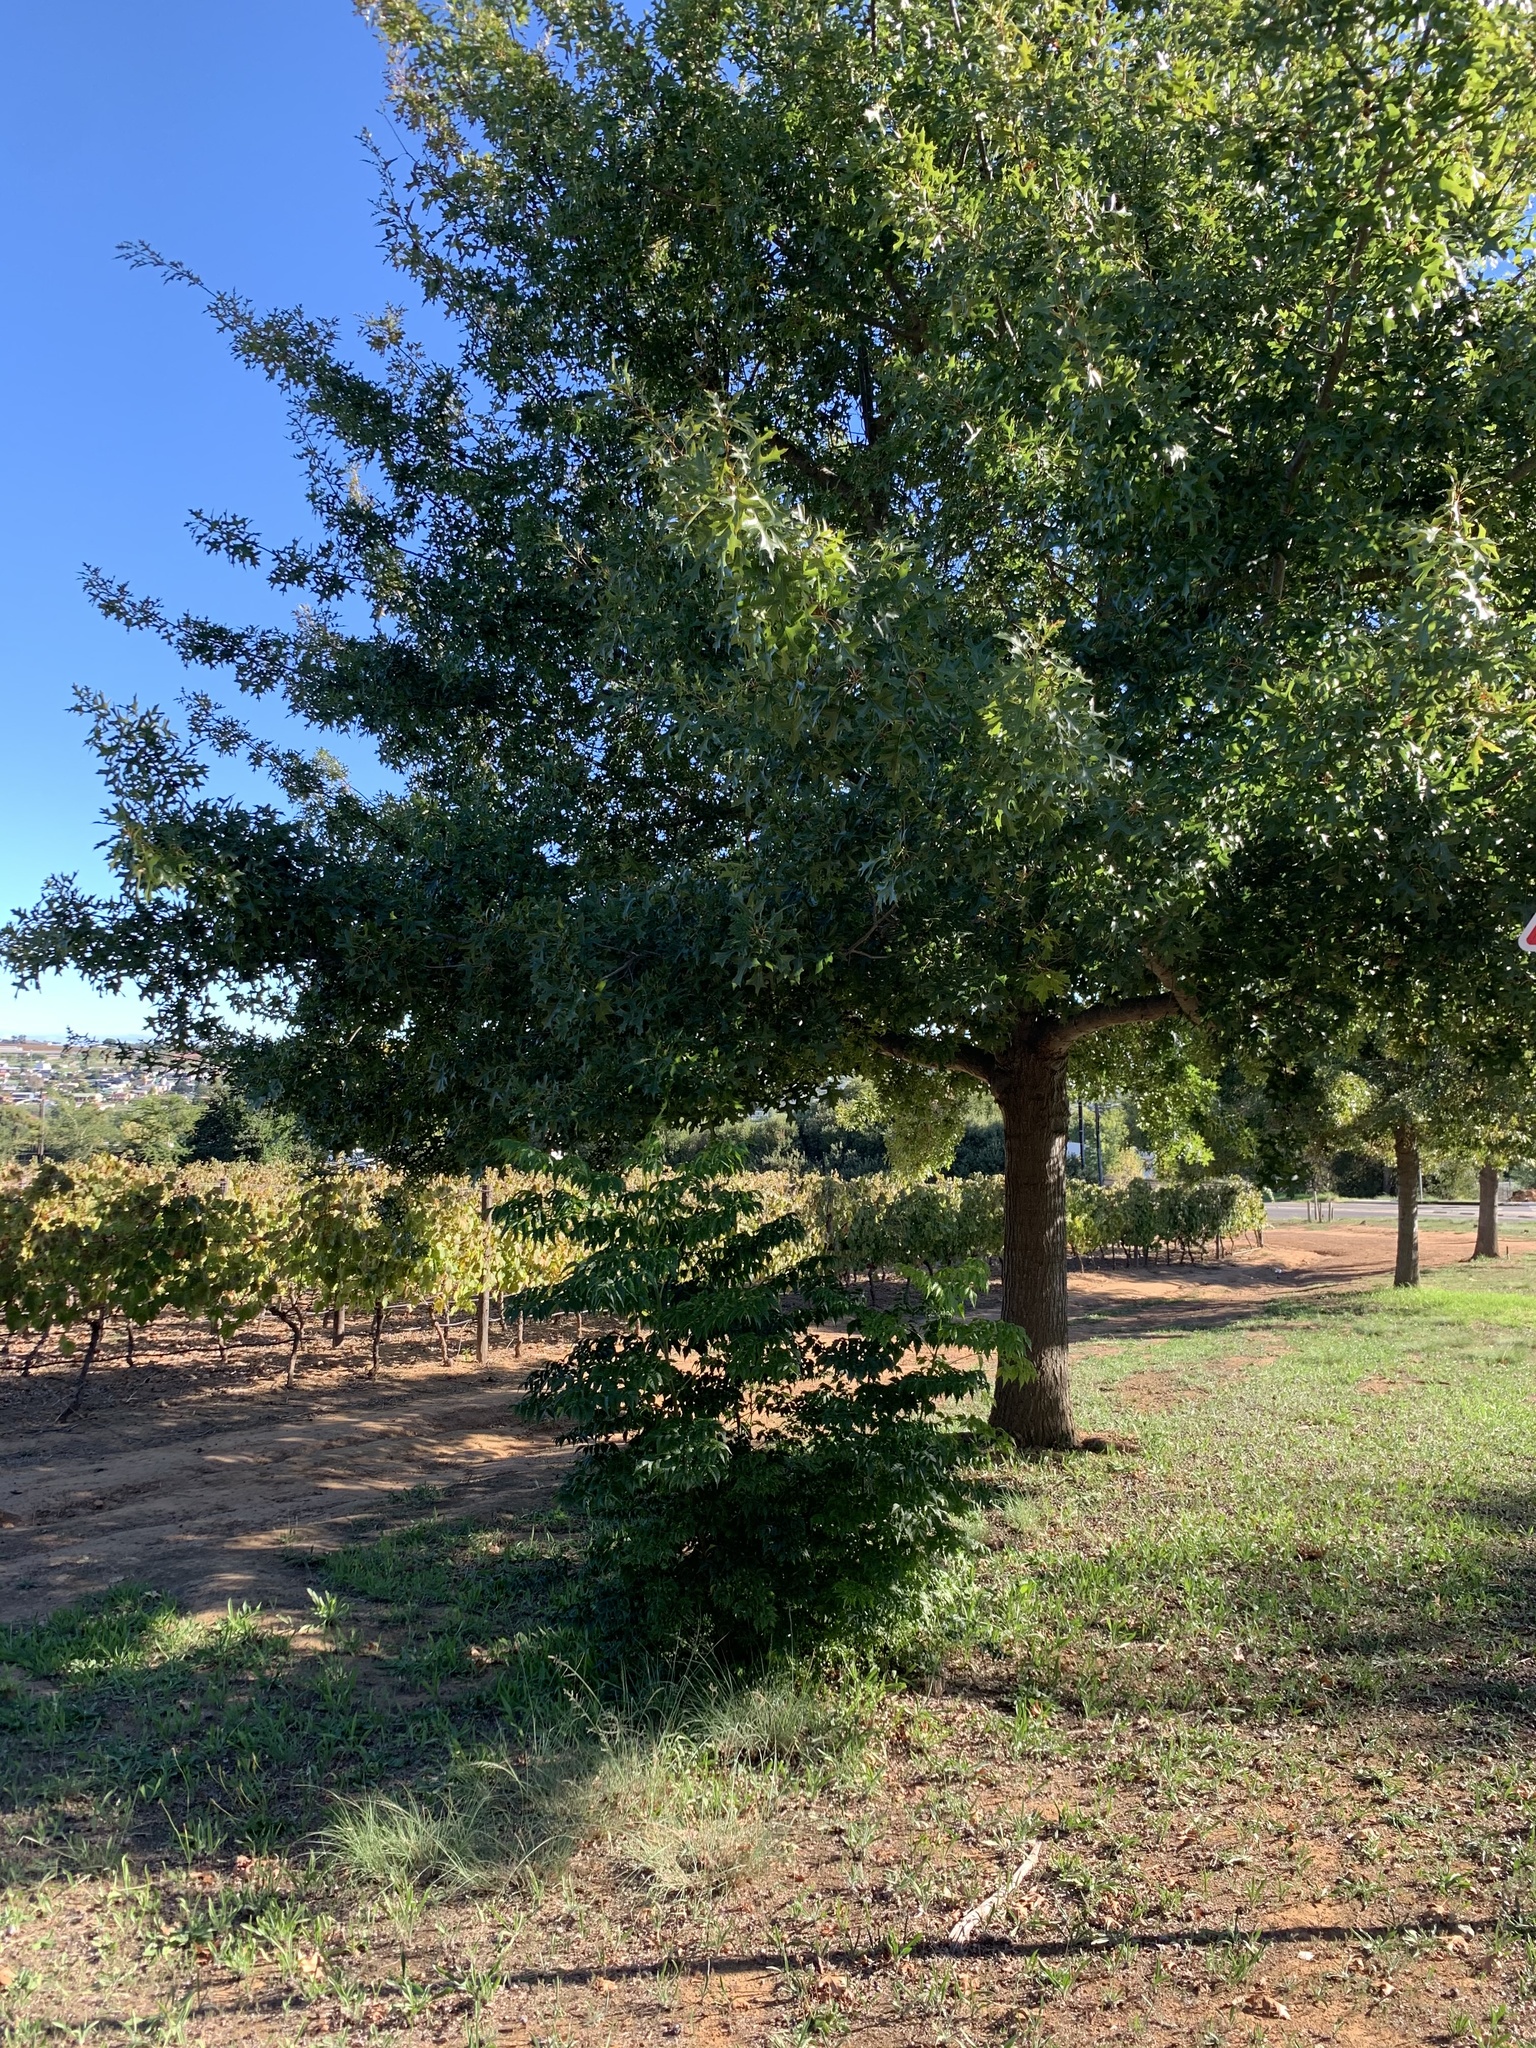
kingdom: Plantae
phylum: Tracheophyta
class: Magnoliopsida
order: Sapindales
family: Meliaceae
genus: Melia
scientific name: Melia azedarach
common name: Chinaberrytree
